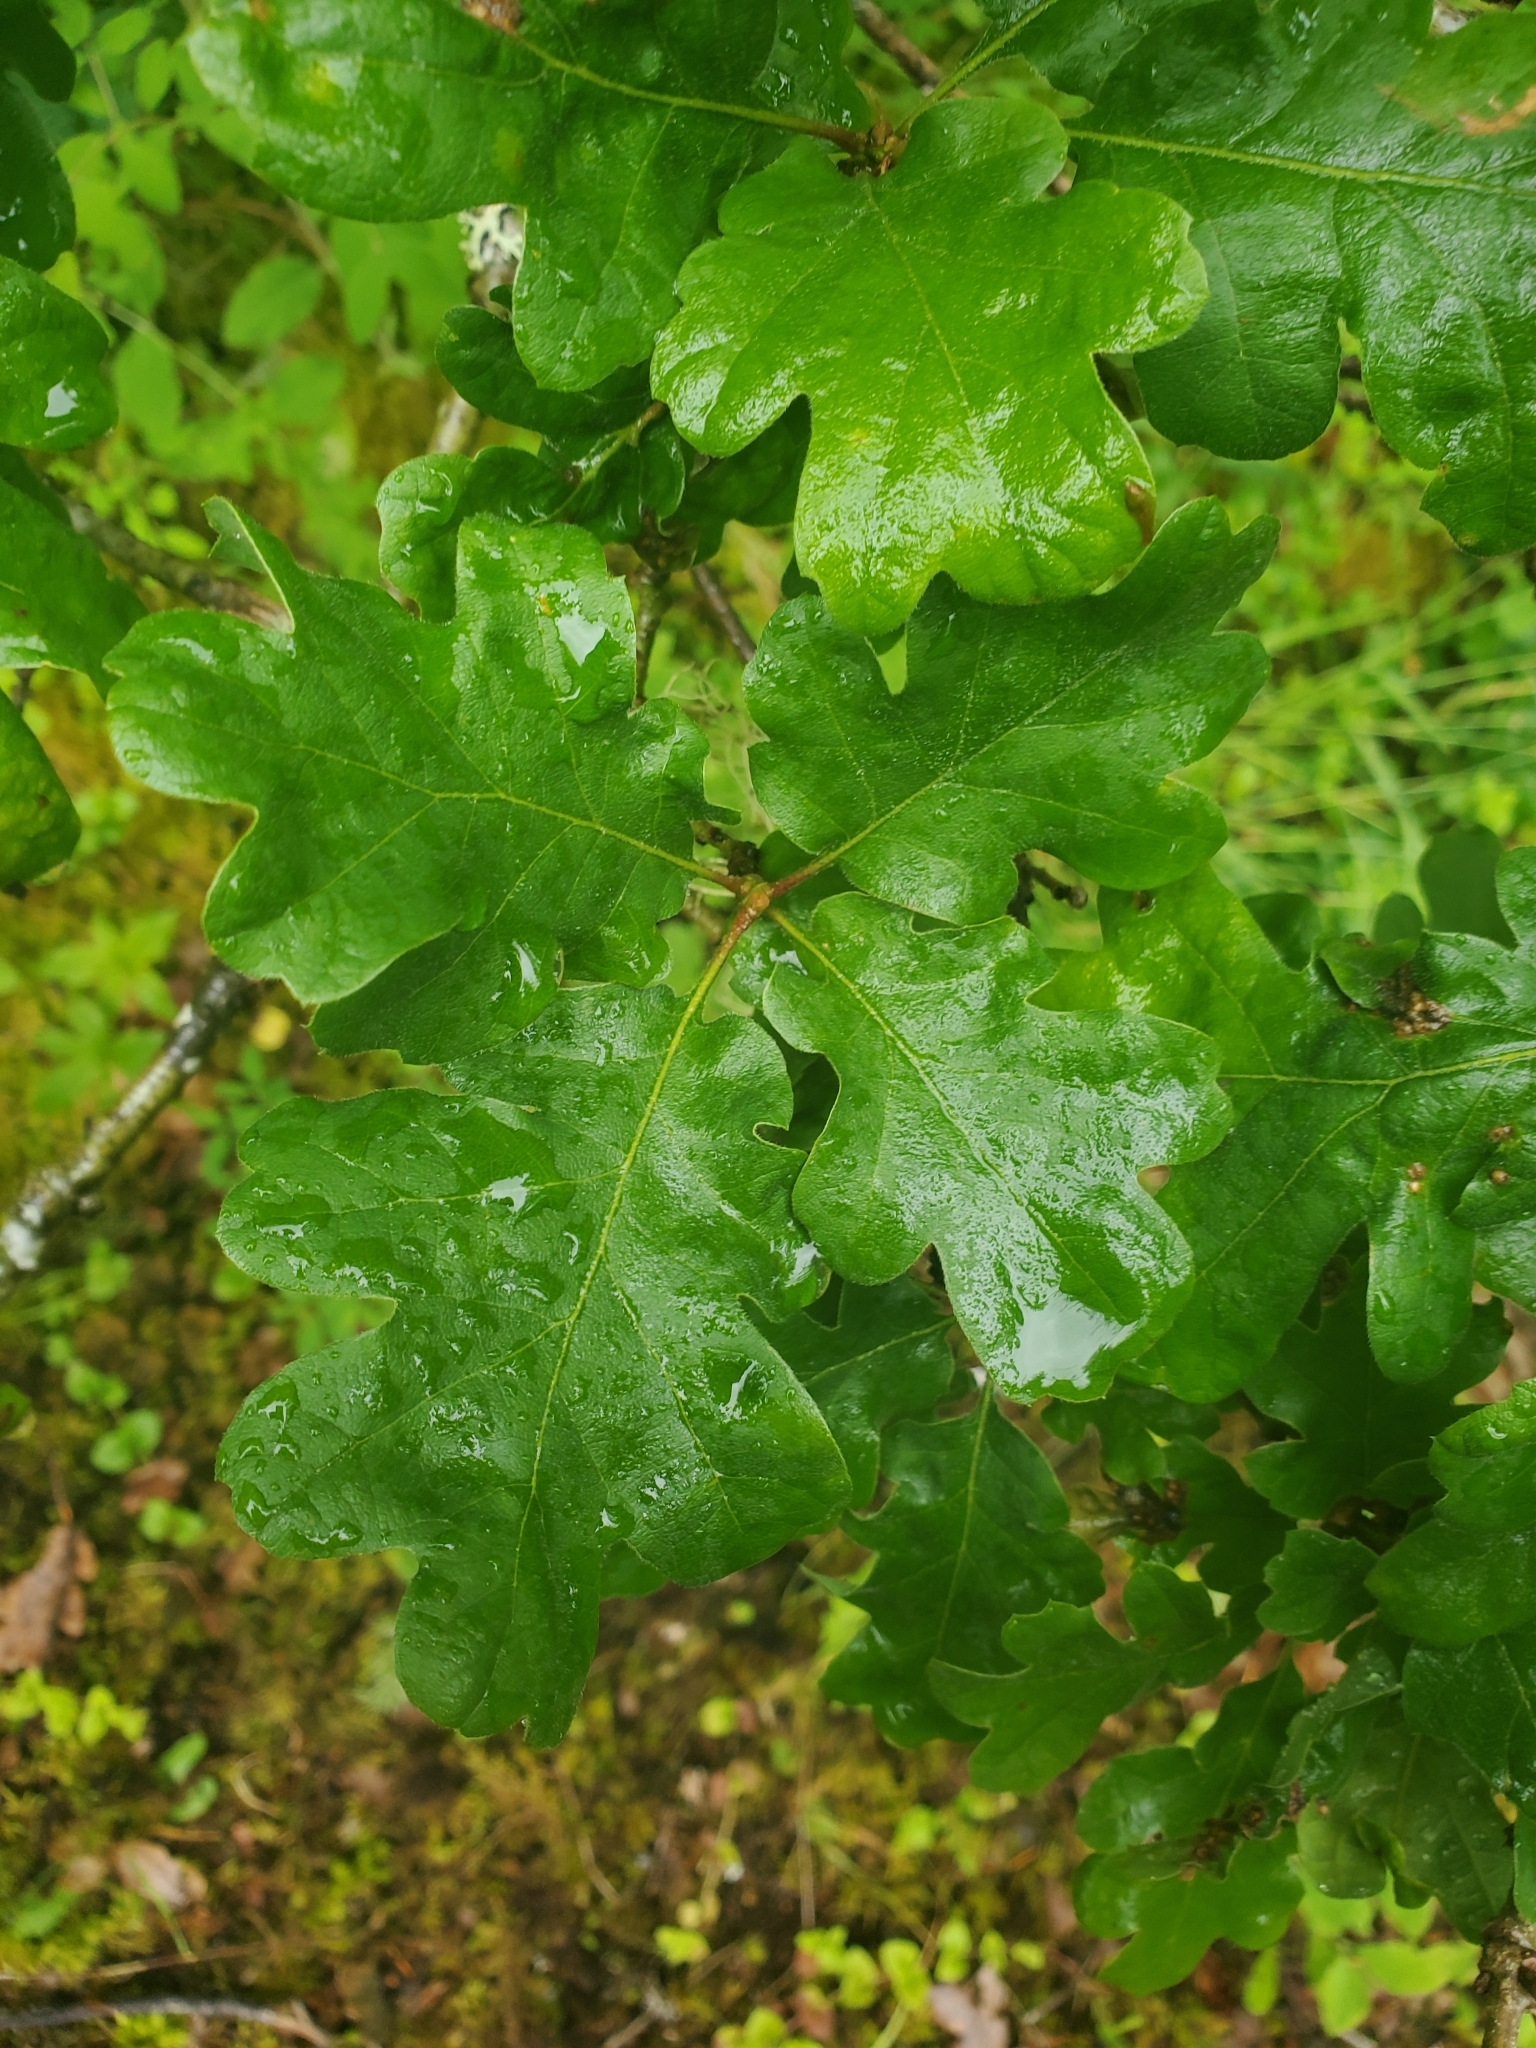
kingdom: Plantae
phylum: Tracheophyta
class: Magnoliopsida
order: Fagales
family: Fagaceae
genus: Quercus
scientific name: Quercus garryana
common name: Garry oak
